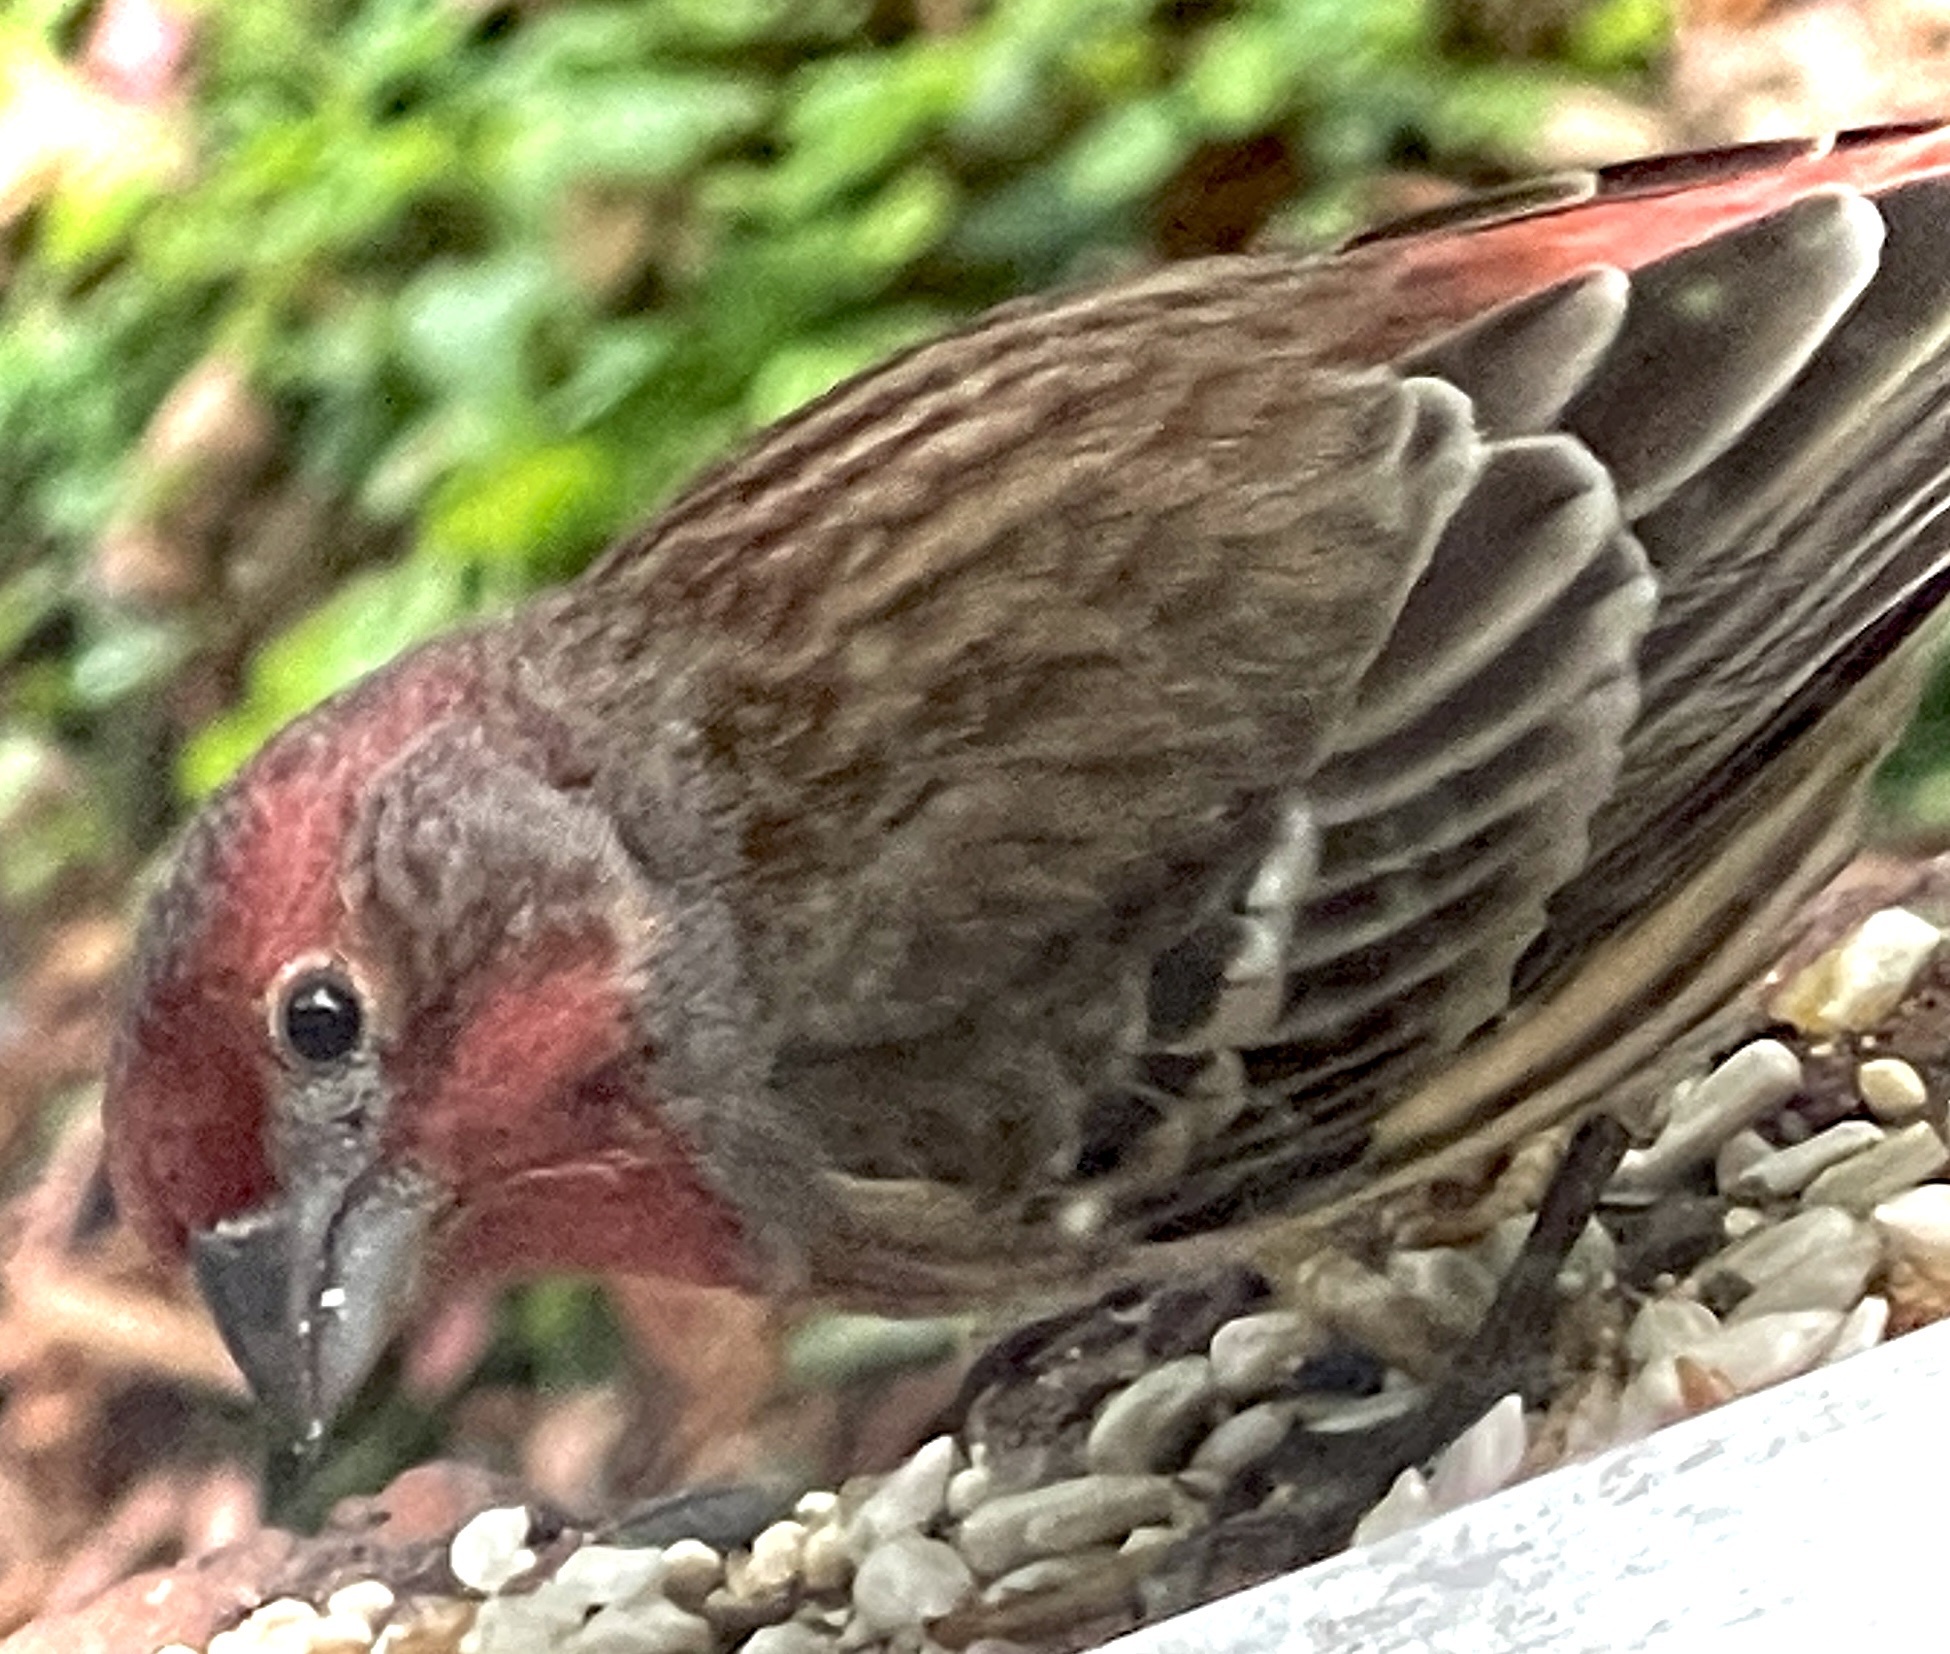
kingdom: Animalia
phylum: Chordata
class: Aves
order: Passeriformes
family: Fringillidae
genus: Haemorhous
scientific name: Haemorhous mexicanus
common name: House finch
